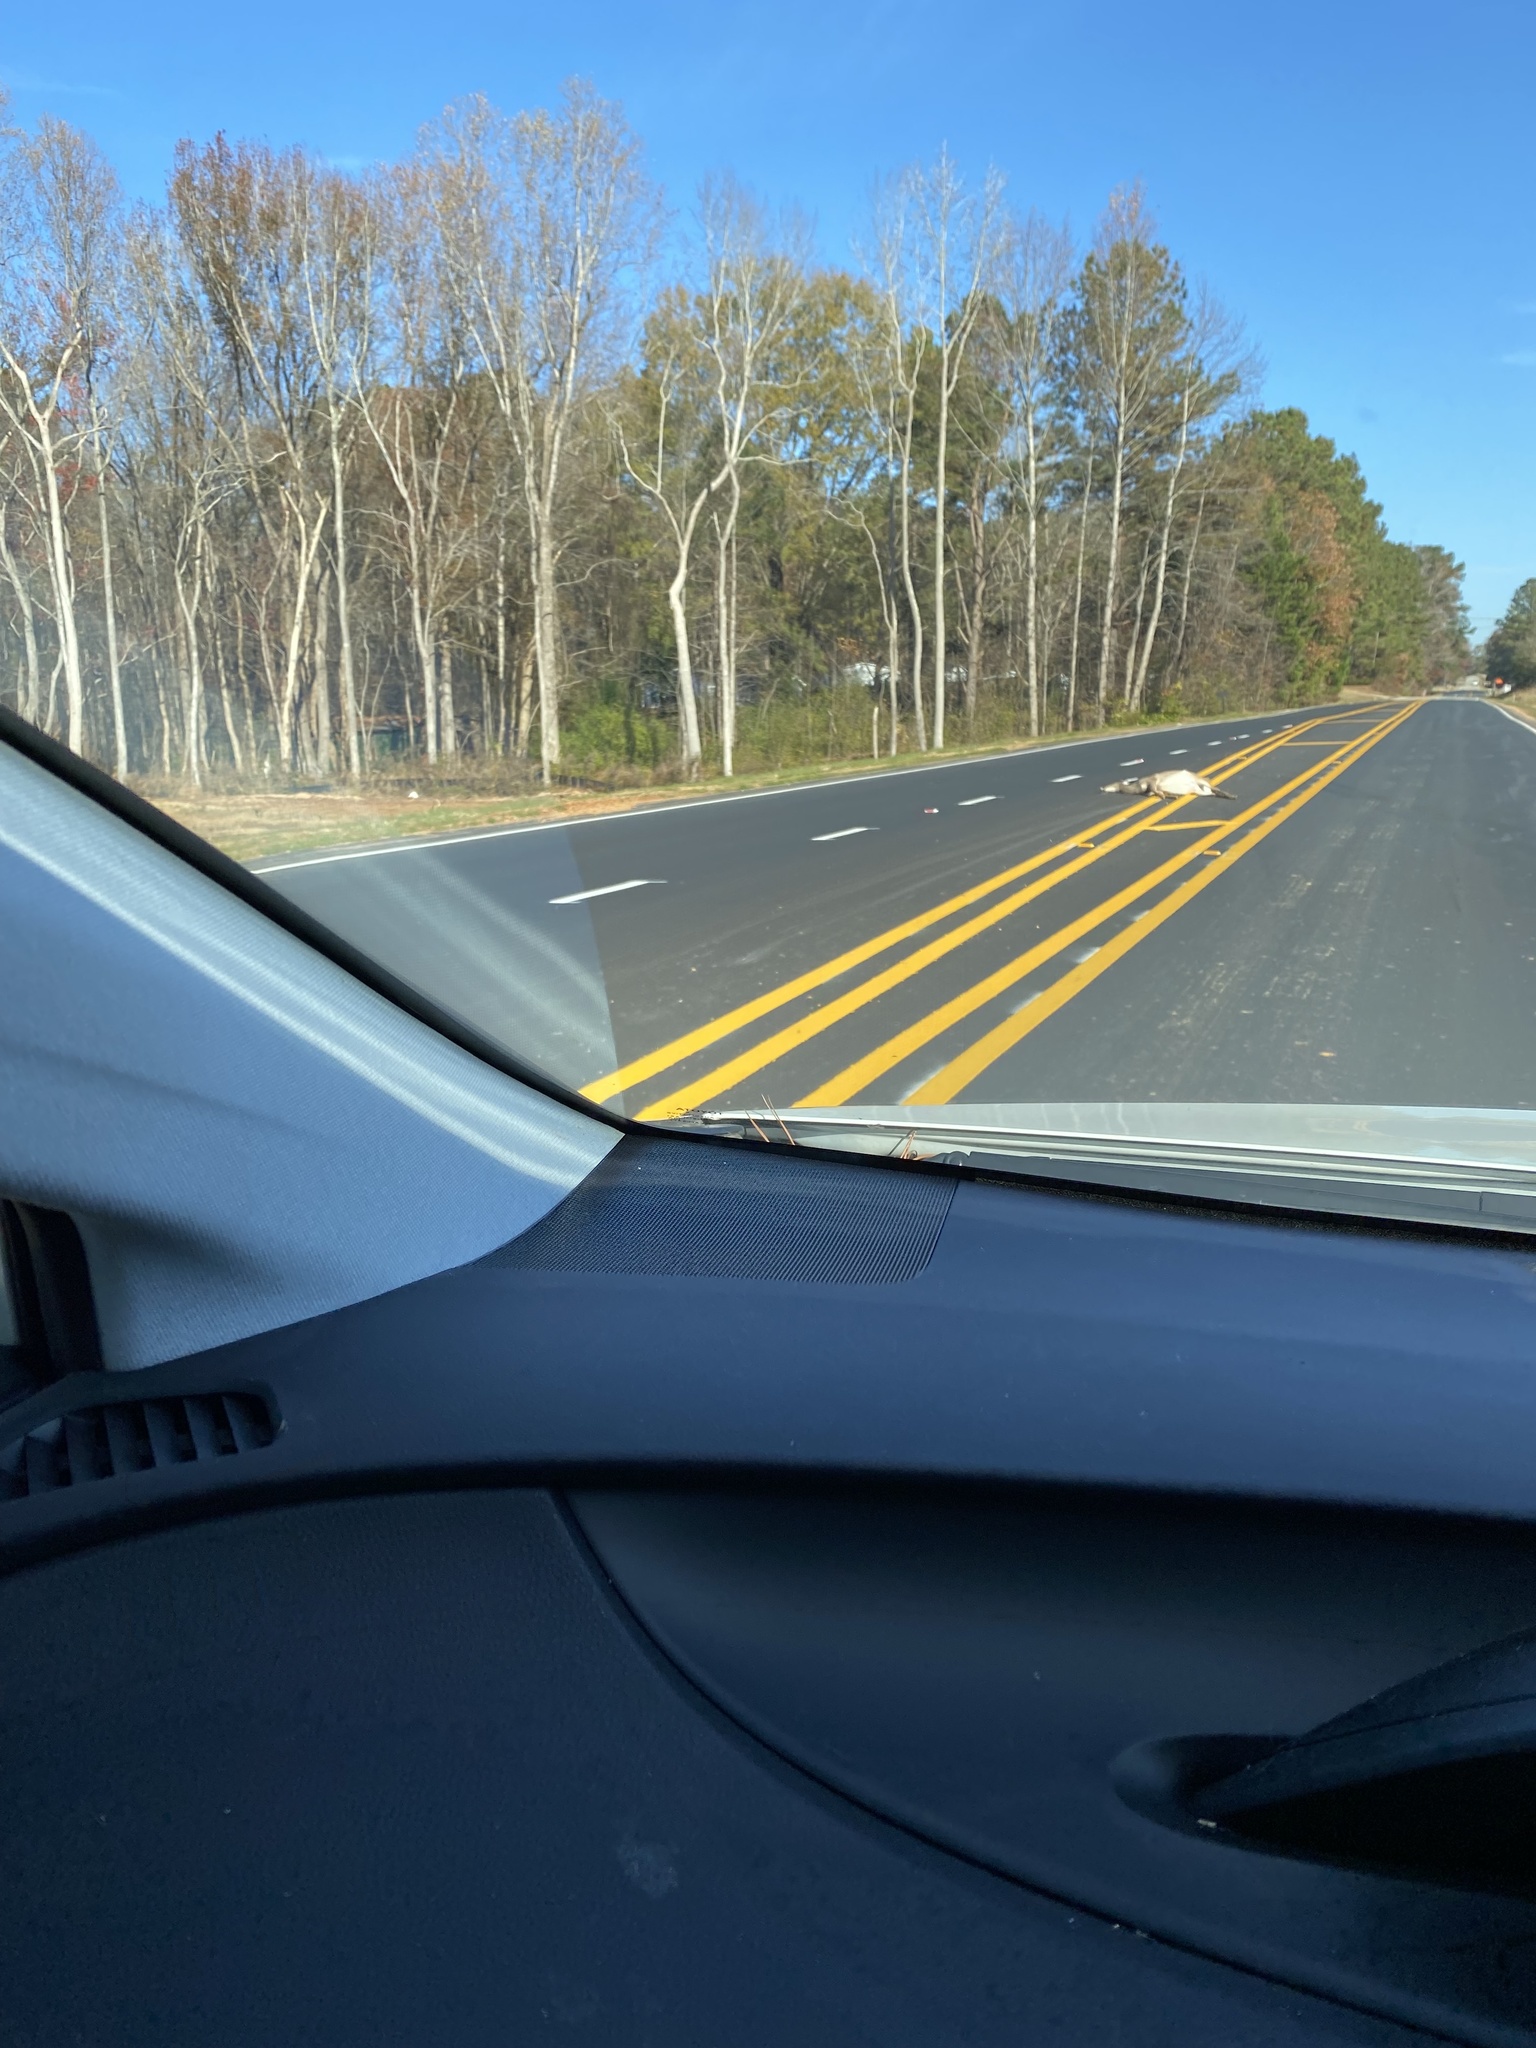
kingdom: Animalia
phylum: Chordata
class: Mammalia
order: Artiodactyla
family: Cervidae
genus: Odocoileus
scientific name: Odocoileus virginianus
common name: White-tailed deer
